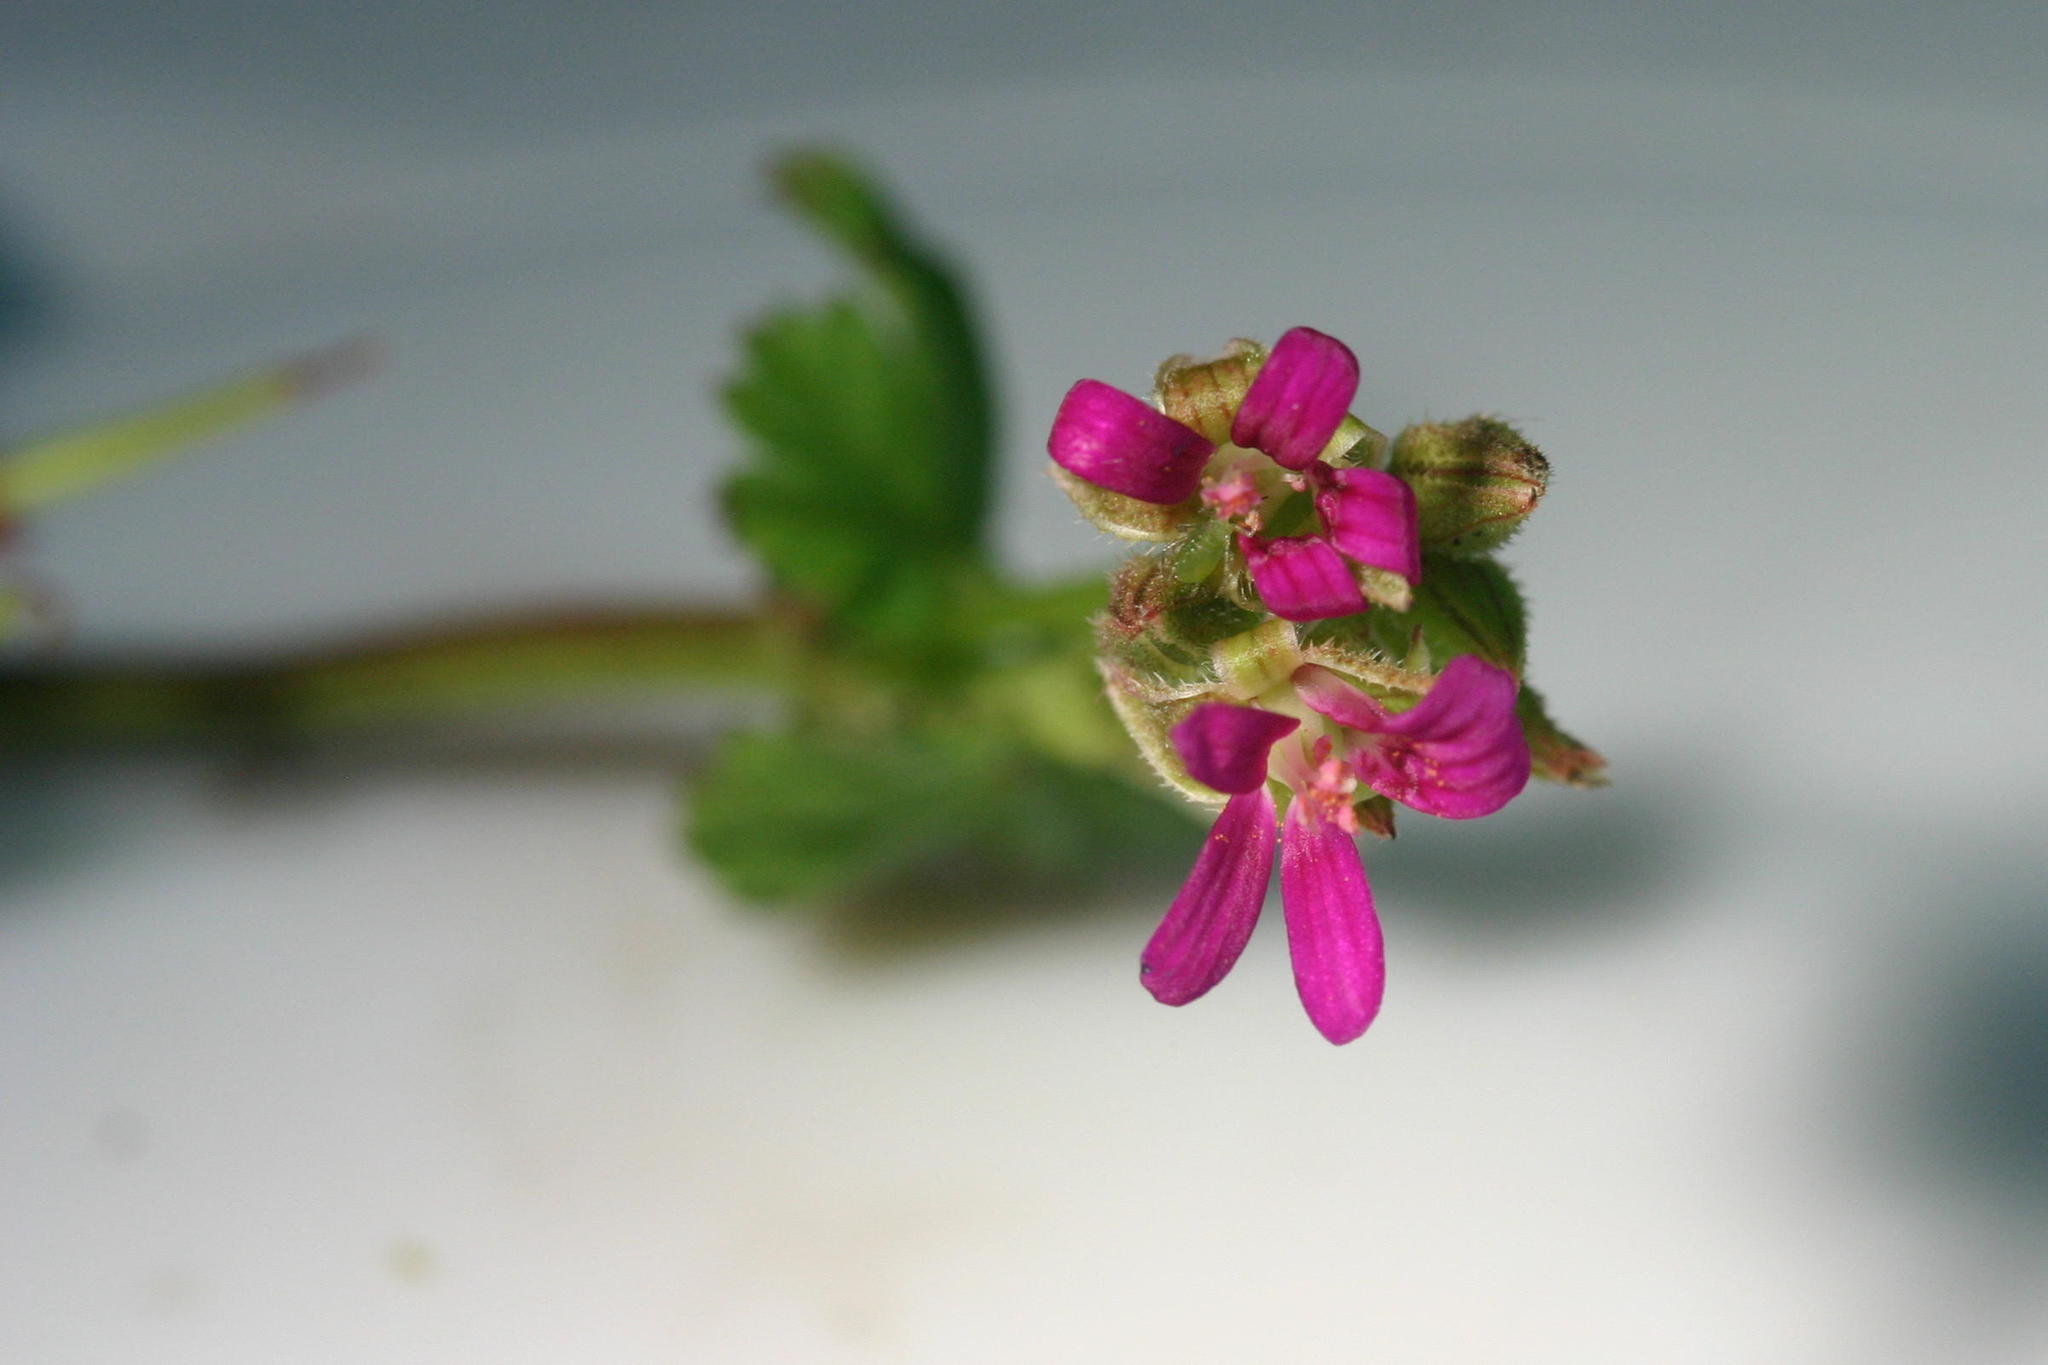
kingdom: Plantae
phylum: Tracheophyta
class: Magnoliopsida
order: Geraniales
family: Geraniaceae
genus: Pelargonium
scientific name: Pelargonium grossularioides
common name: Gooseberry geranium
